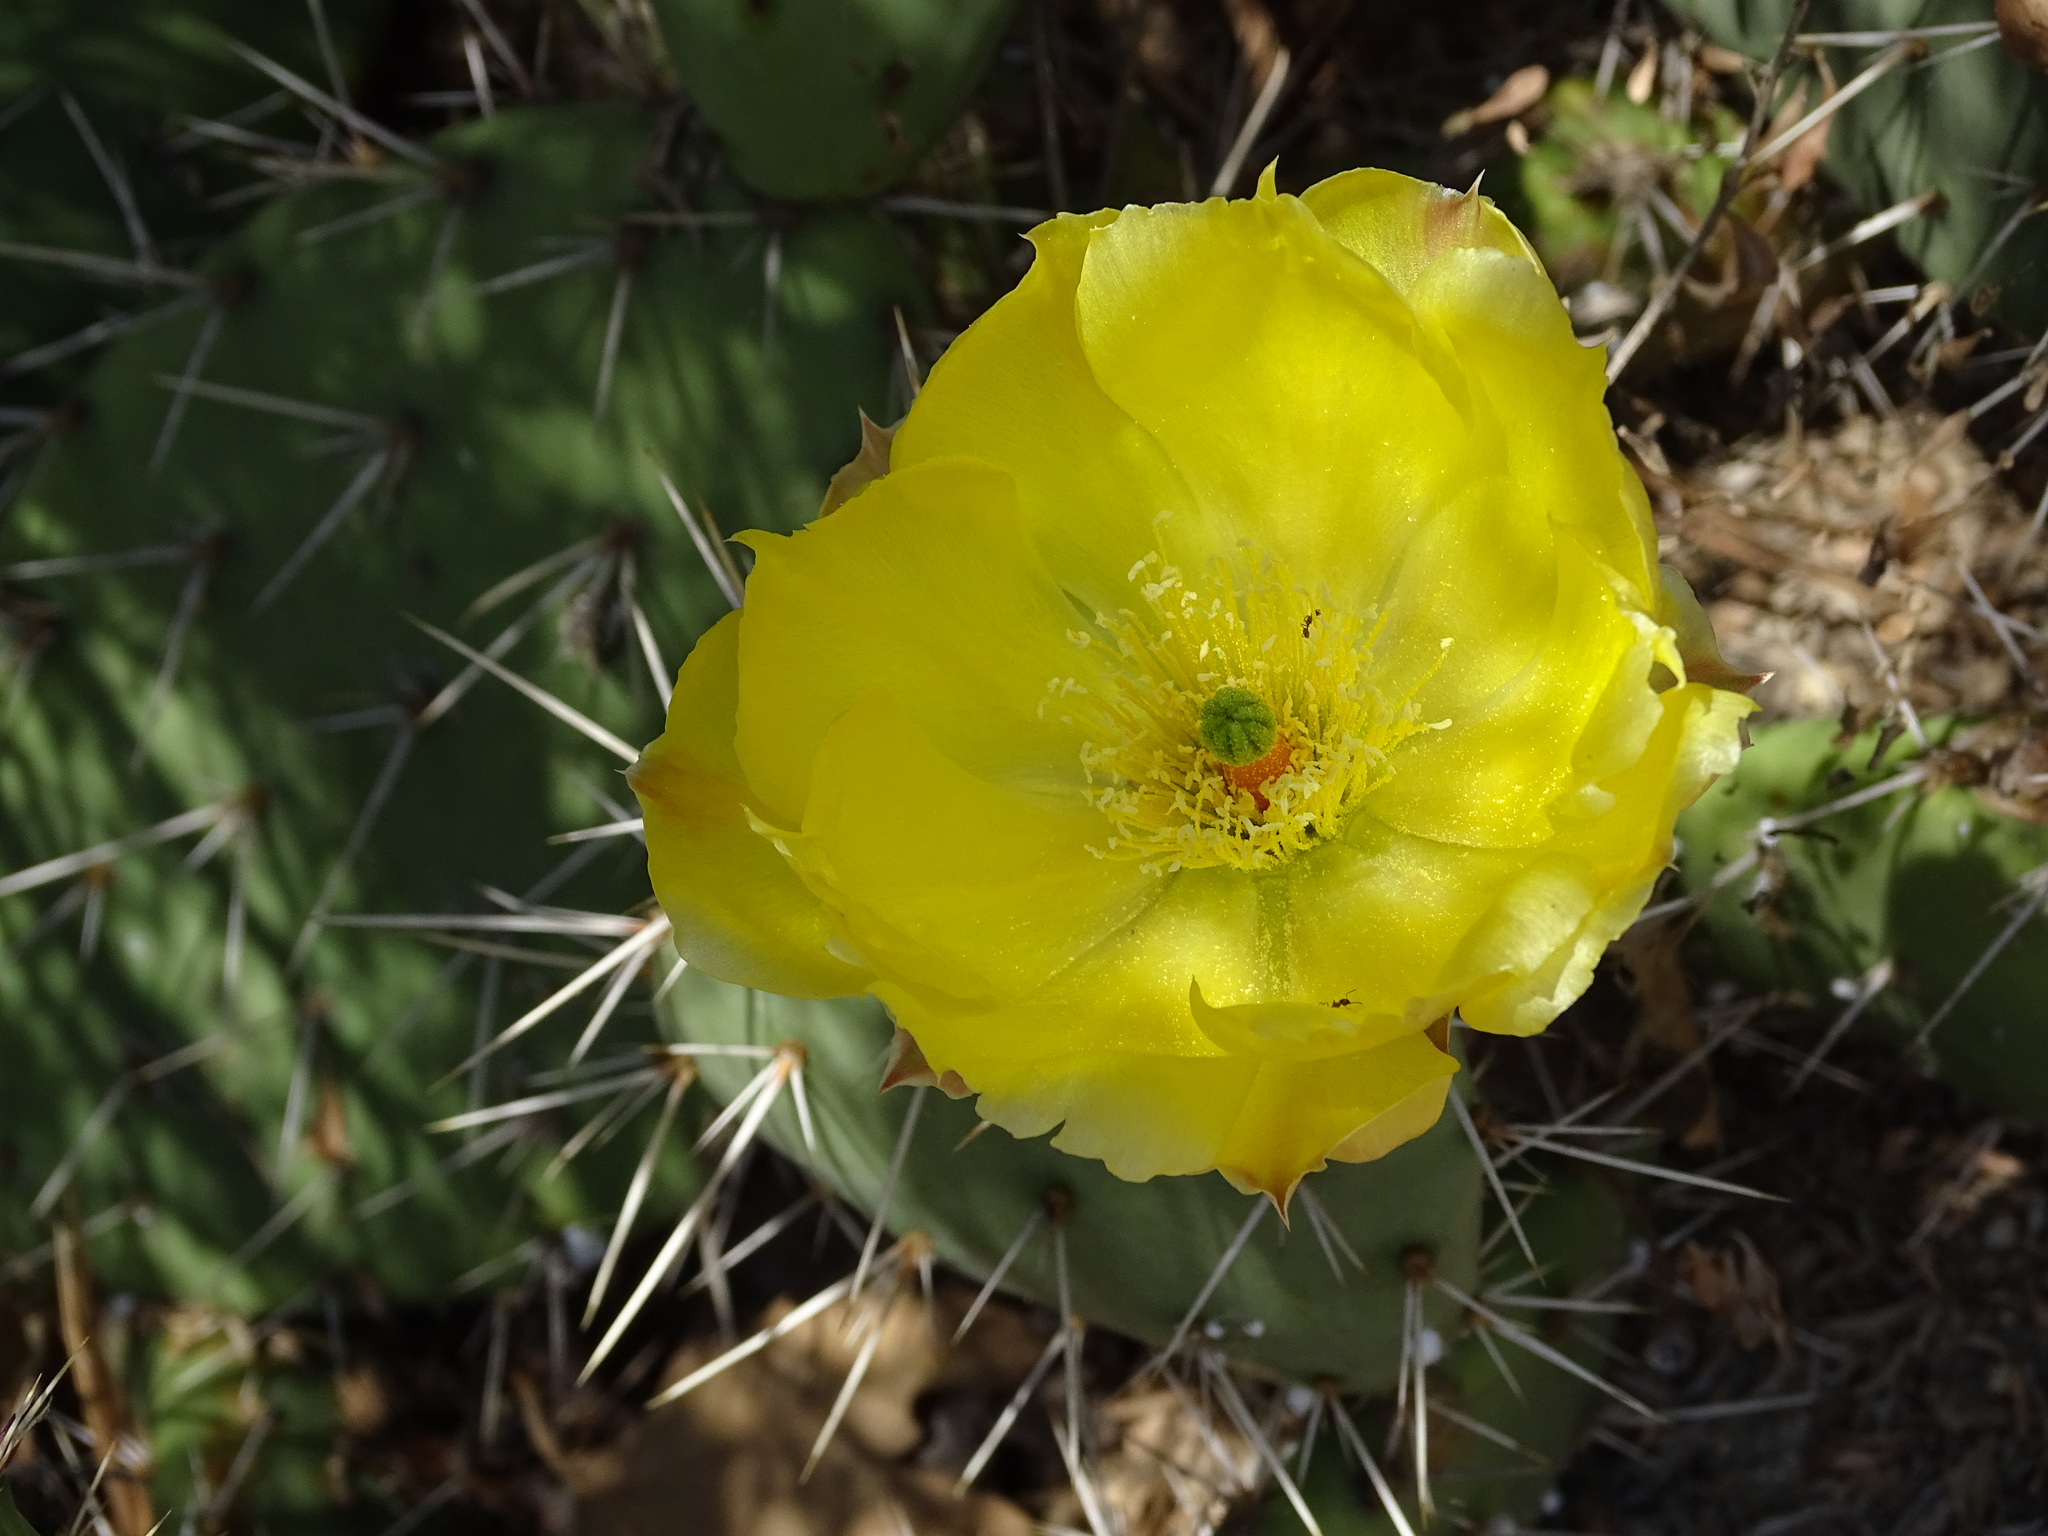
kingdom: Plantae
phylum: Tracheophyta
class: Magnoliopsida
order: Caryophyllales
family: Cactaceae
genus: Opuntia
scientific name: Opuntia
